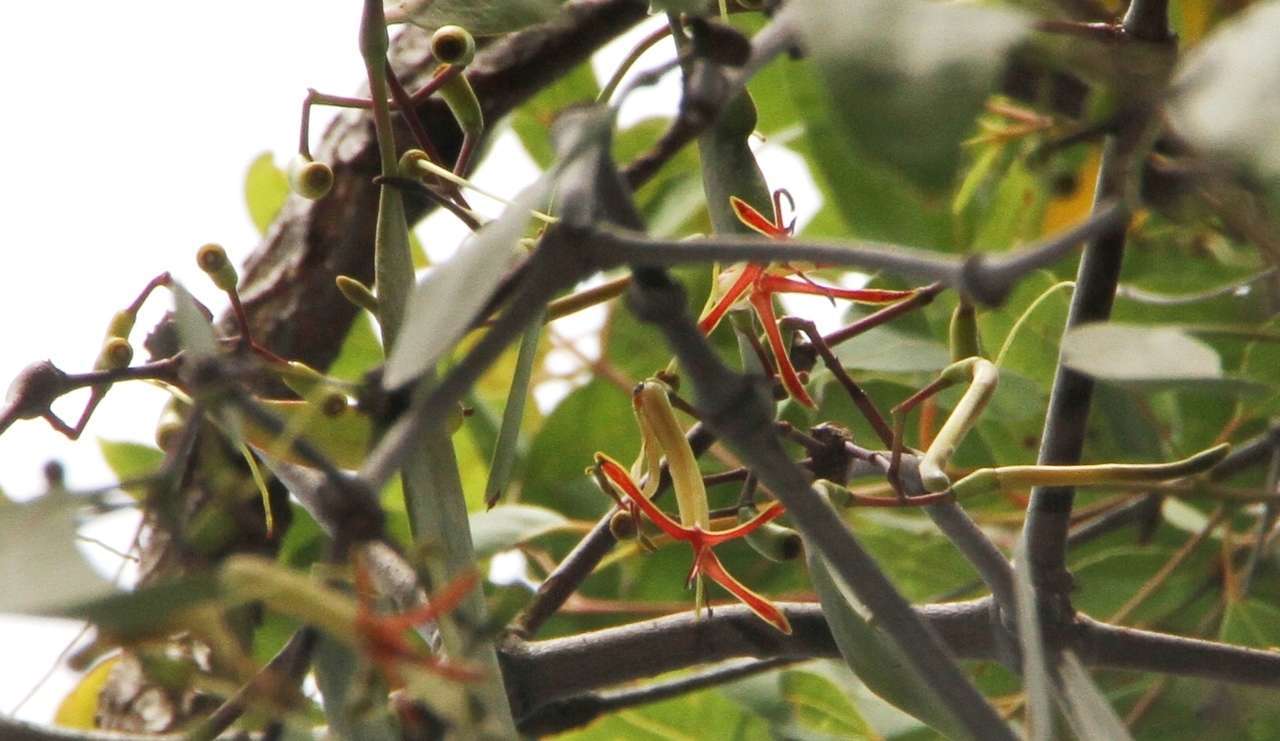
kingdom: Plantae
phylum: Tracheophyta
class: Magnoliopsida
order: Santalales
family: Loranthaceae
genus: Muellerina
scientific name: Muellerina eucalyptoides
